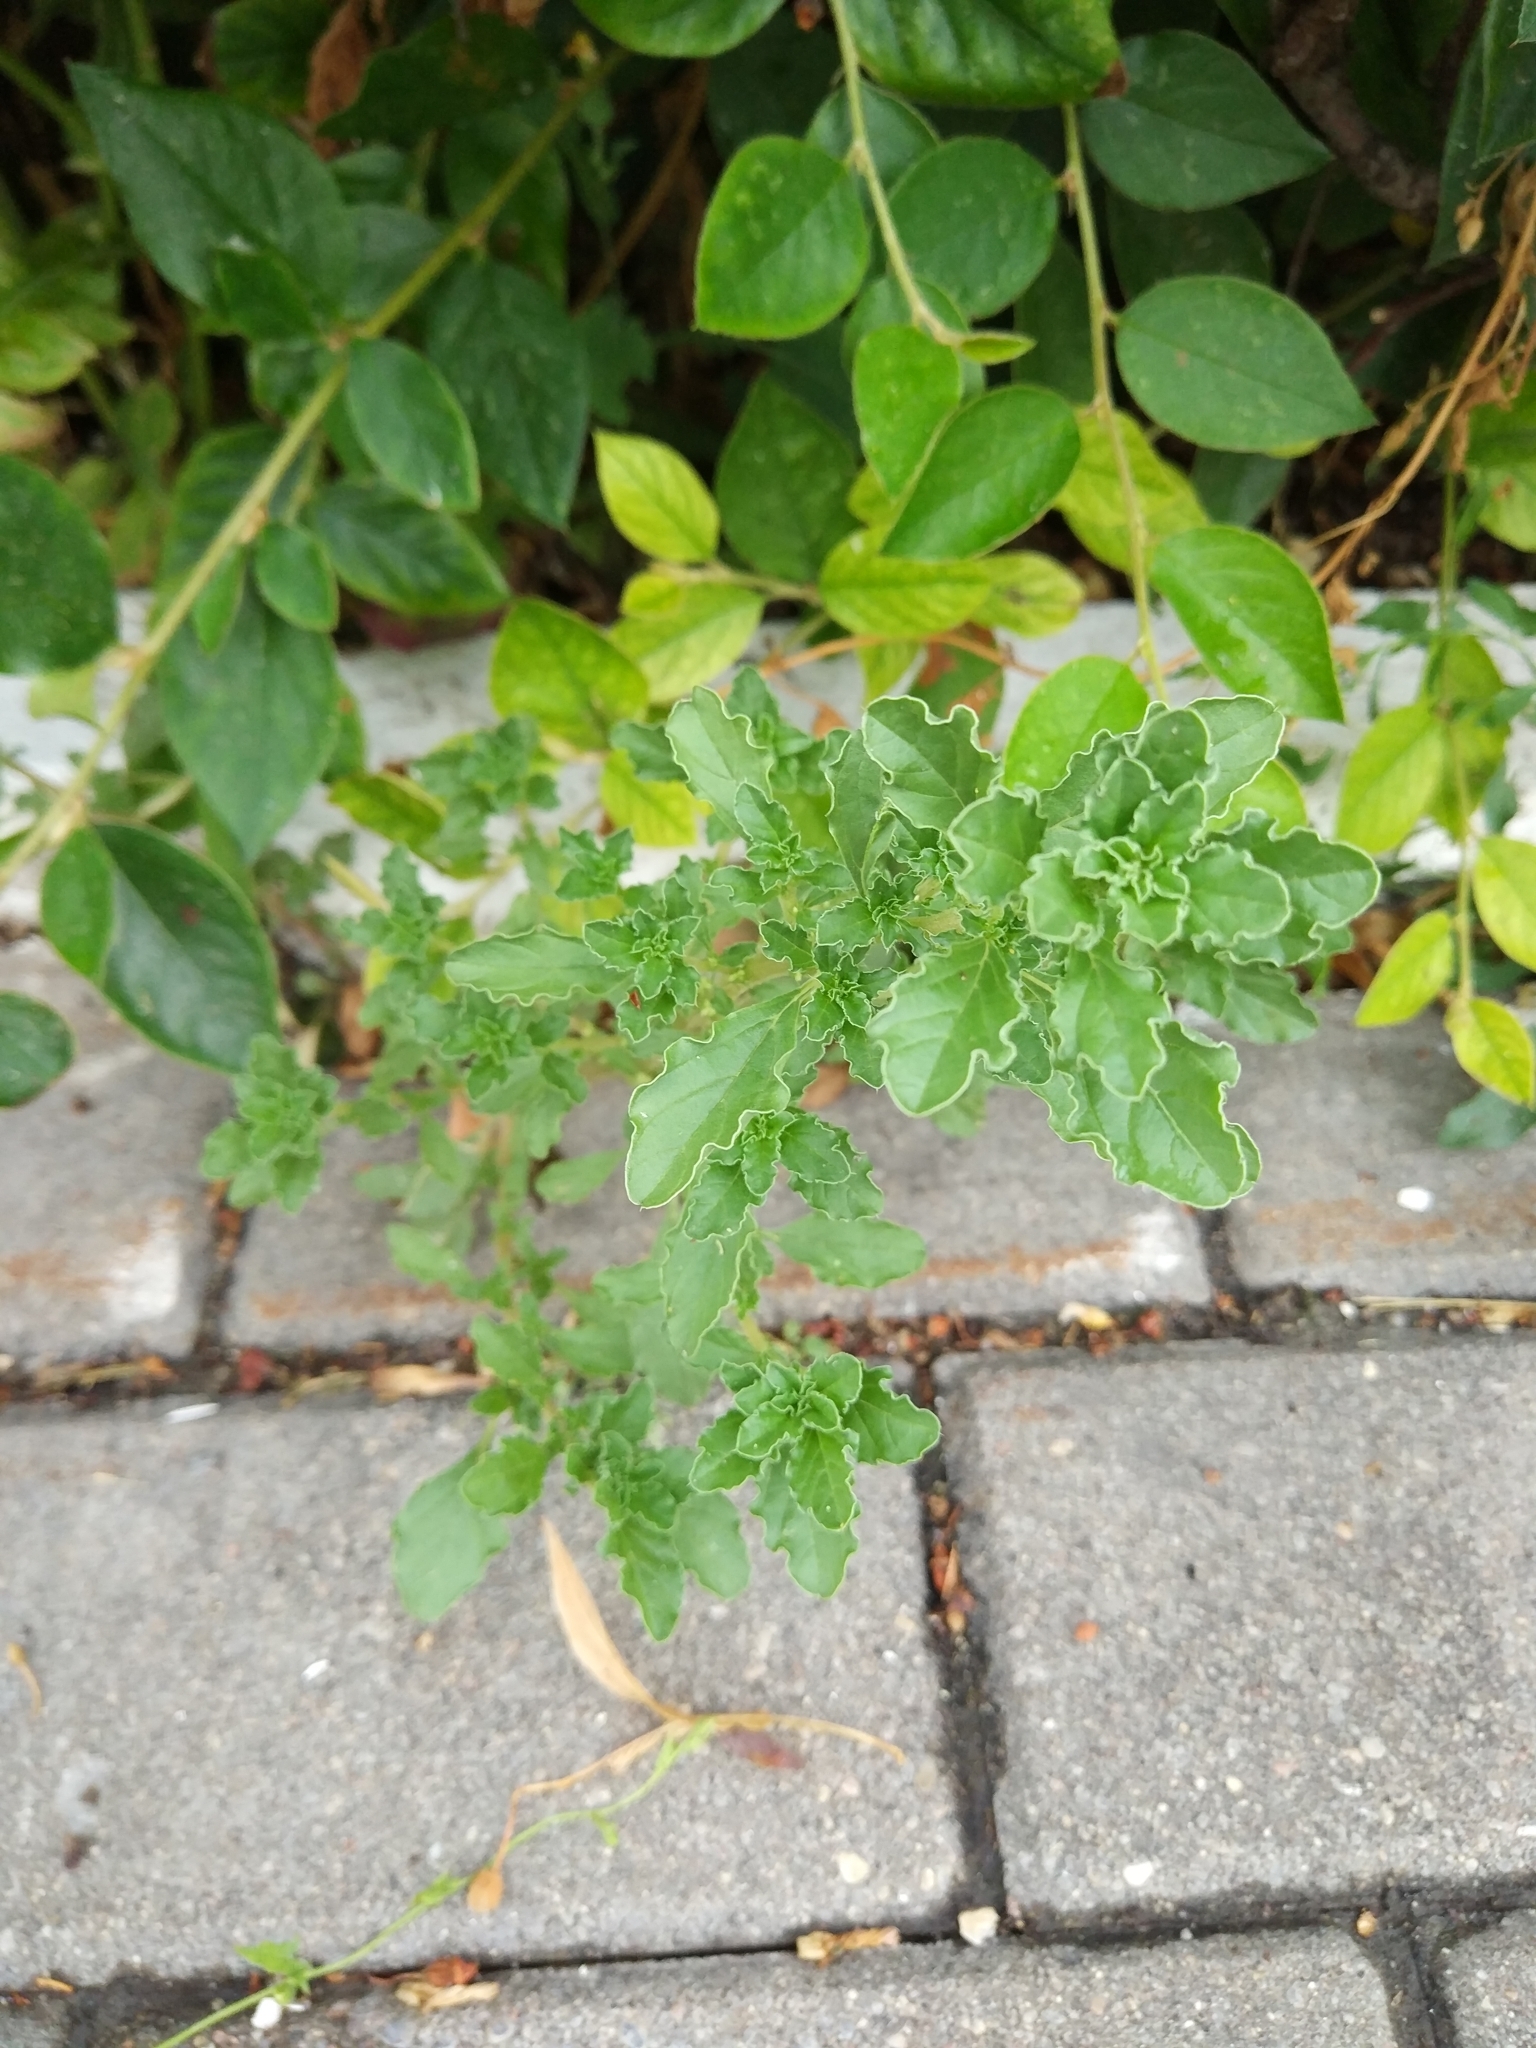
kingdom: Plantae
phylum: Tracheophyta
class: Magnoliopsida
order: Caryophyllales
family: Amaranthaceae
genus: Amaranthus
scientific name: Amaranthus albus
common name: White pigweed
